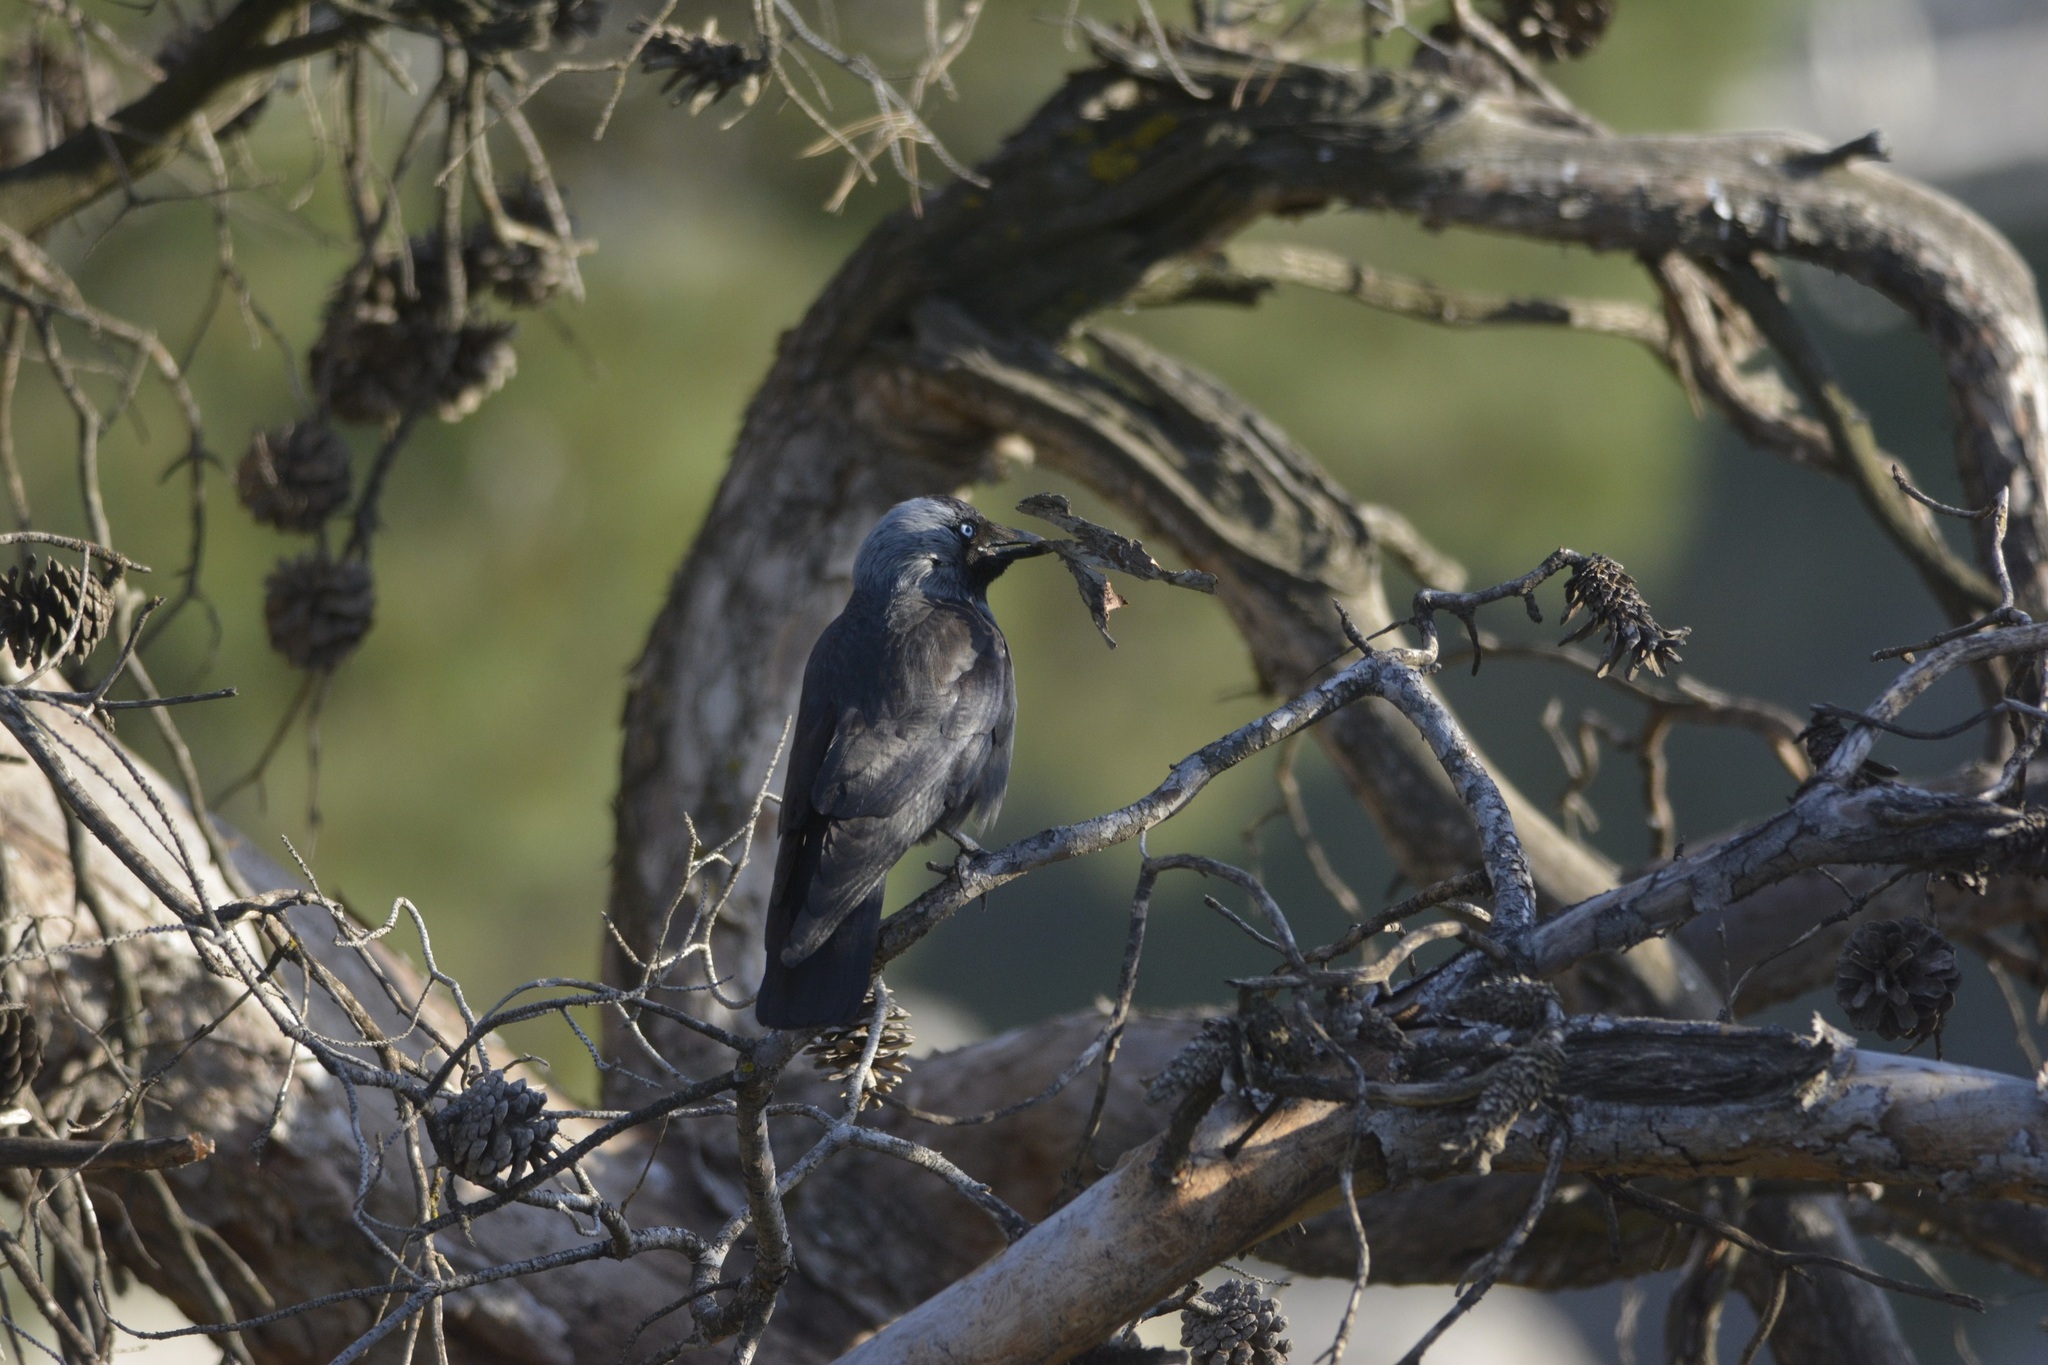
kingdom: Animalia
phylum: Chordata
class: Aves
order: Passeriformes
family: Corvidae
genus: Coloeus
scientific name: Coloeus monedula
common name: Western jackdaw
